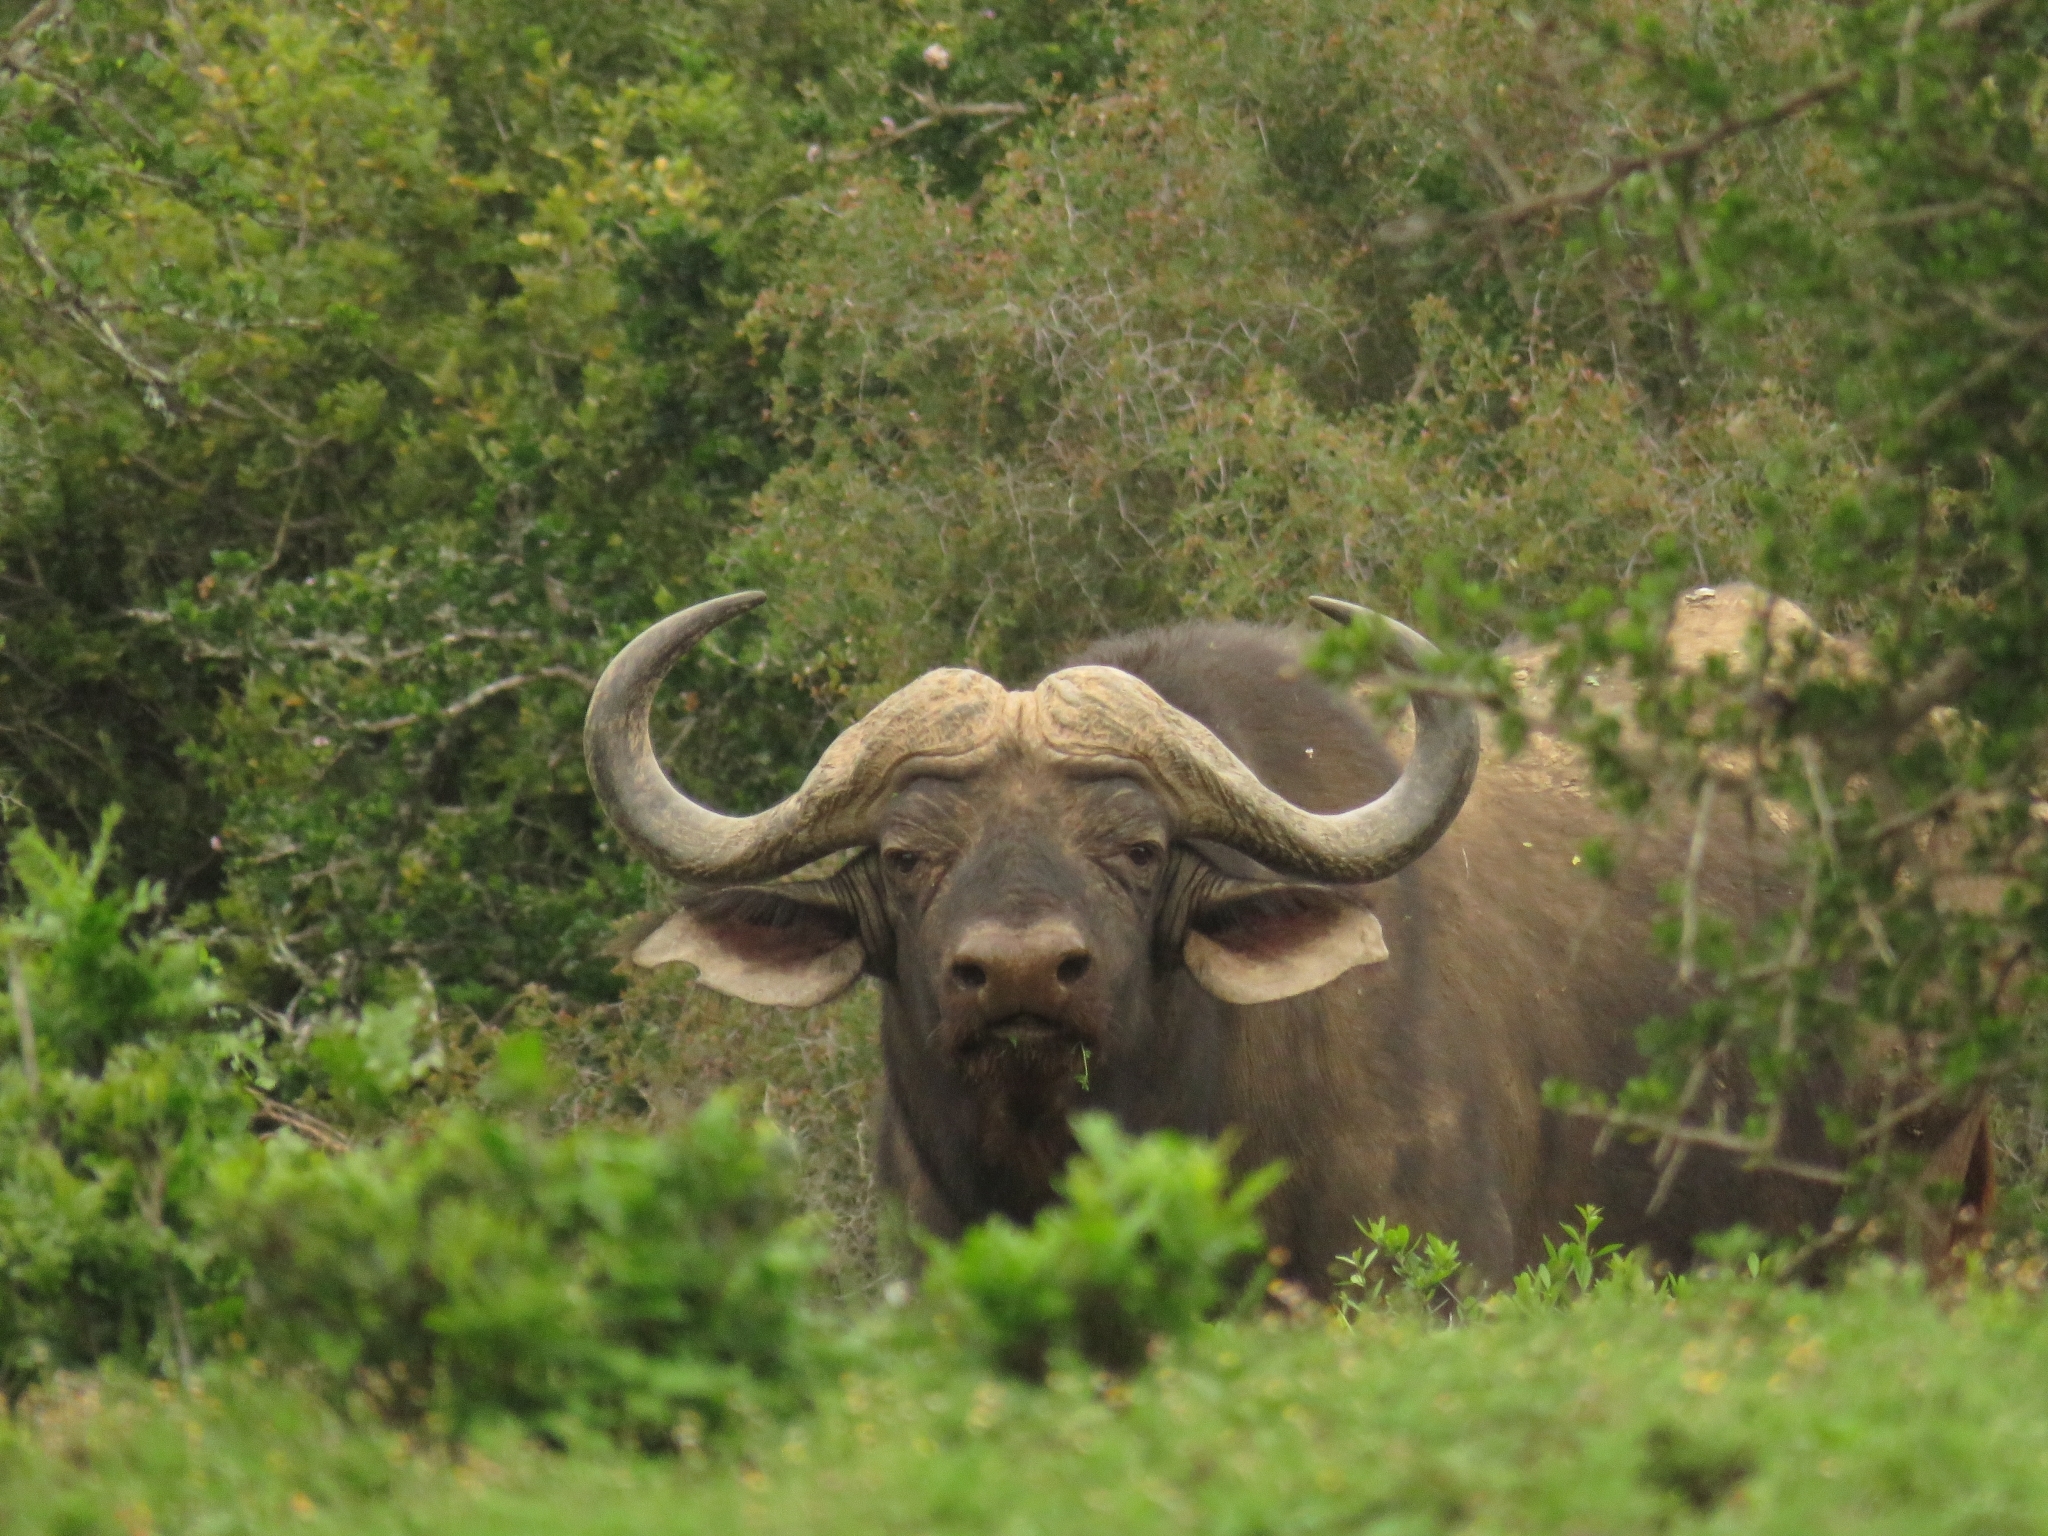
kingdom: Animalia
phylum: Chordata
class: Mammalia
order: Artiodactyla
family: Bovidae
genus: Syncerus
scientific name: Syncerus caffer
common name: African buffalo
